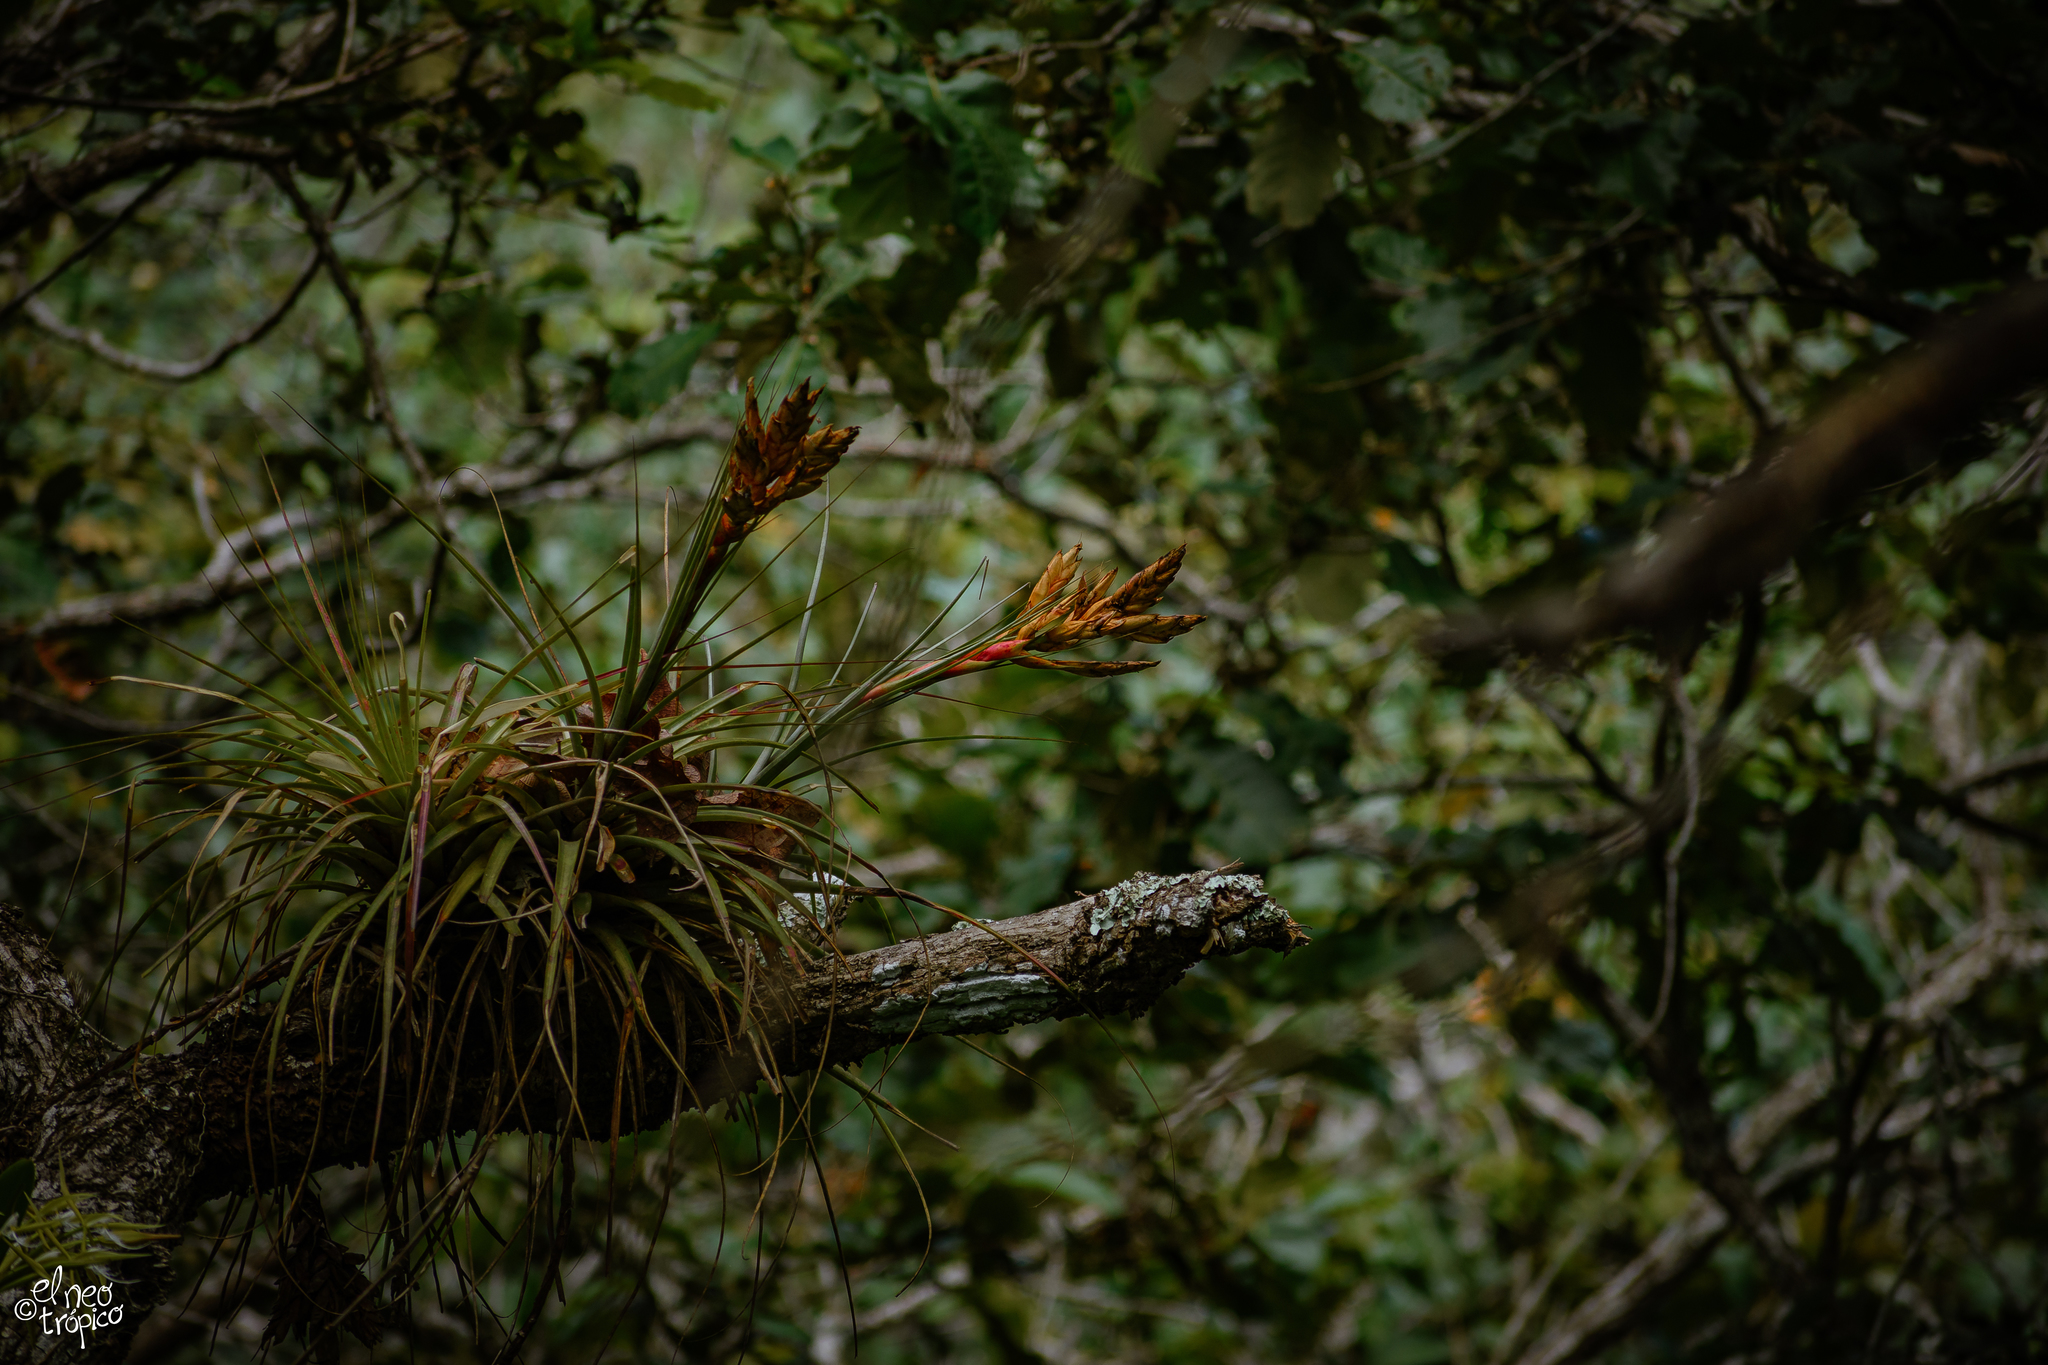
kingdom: Plantae
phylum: Tracheophyta
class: Liliopsida
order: Poales
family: Bromeliaceae
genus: Tillandsia
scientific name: Tillandsia fasciculata
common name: Giant airplant
